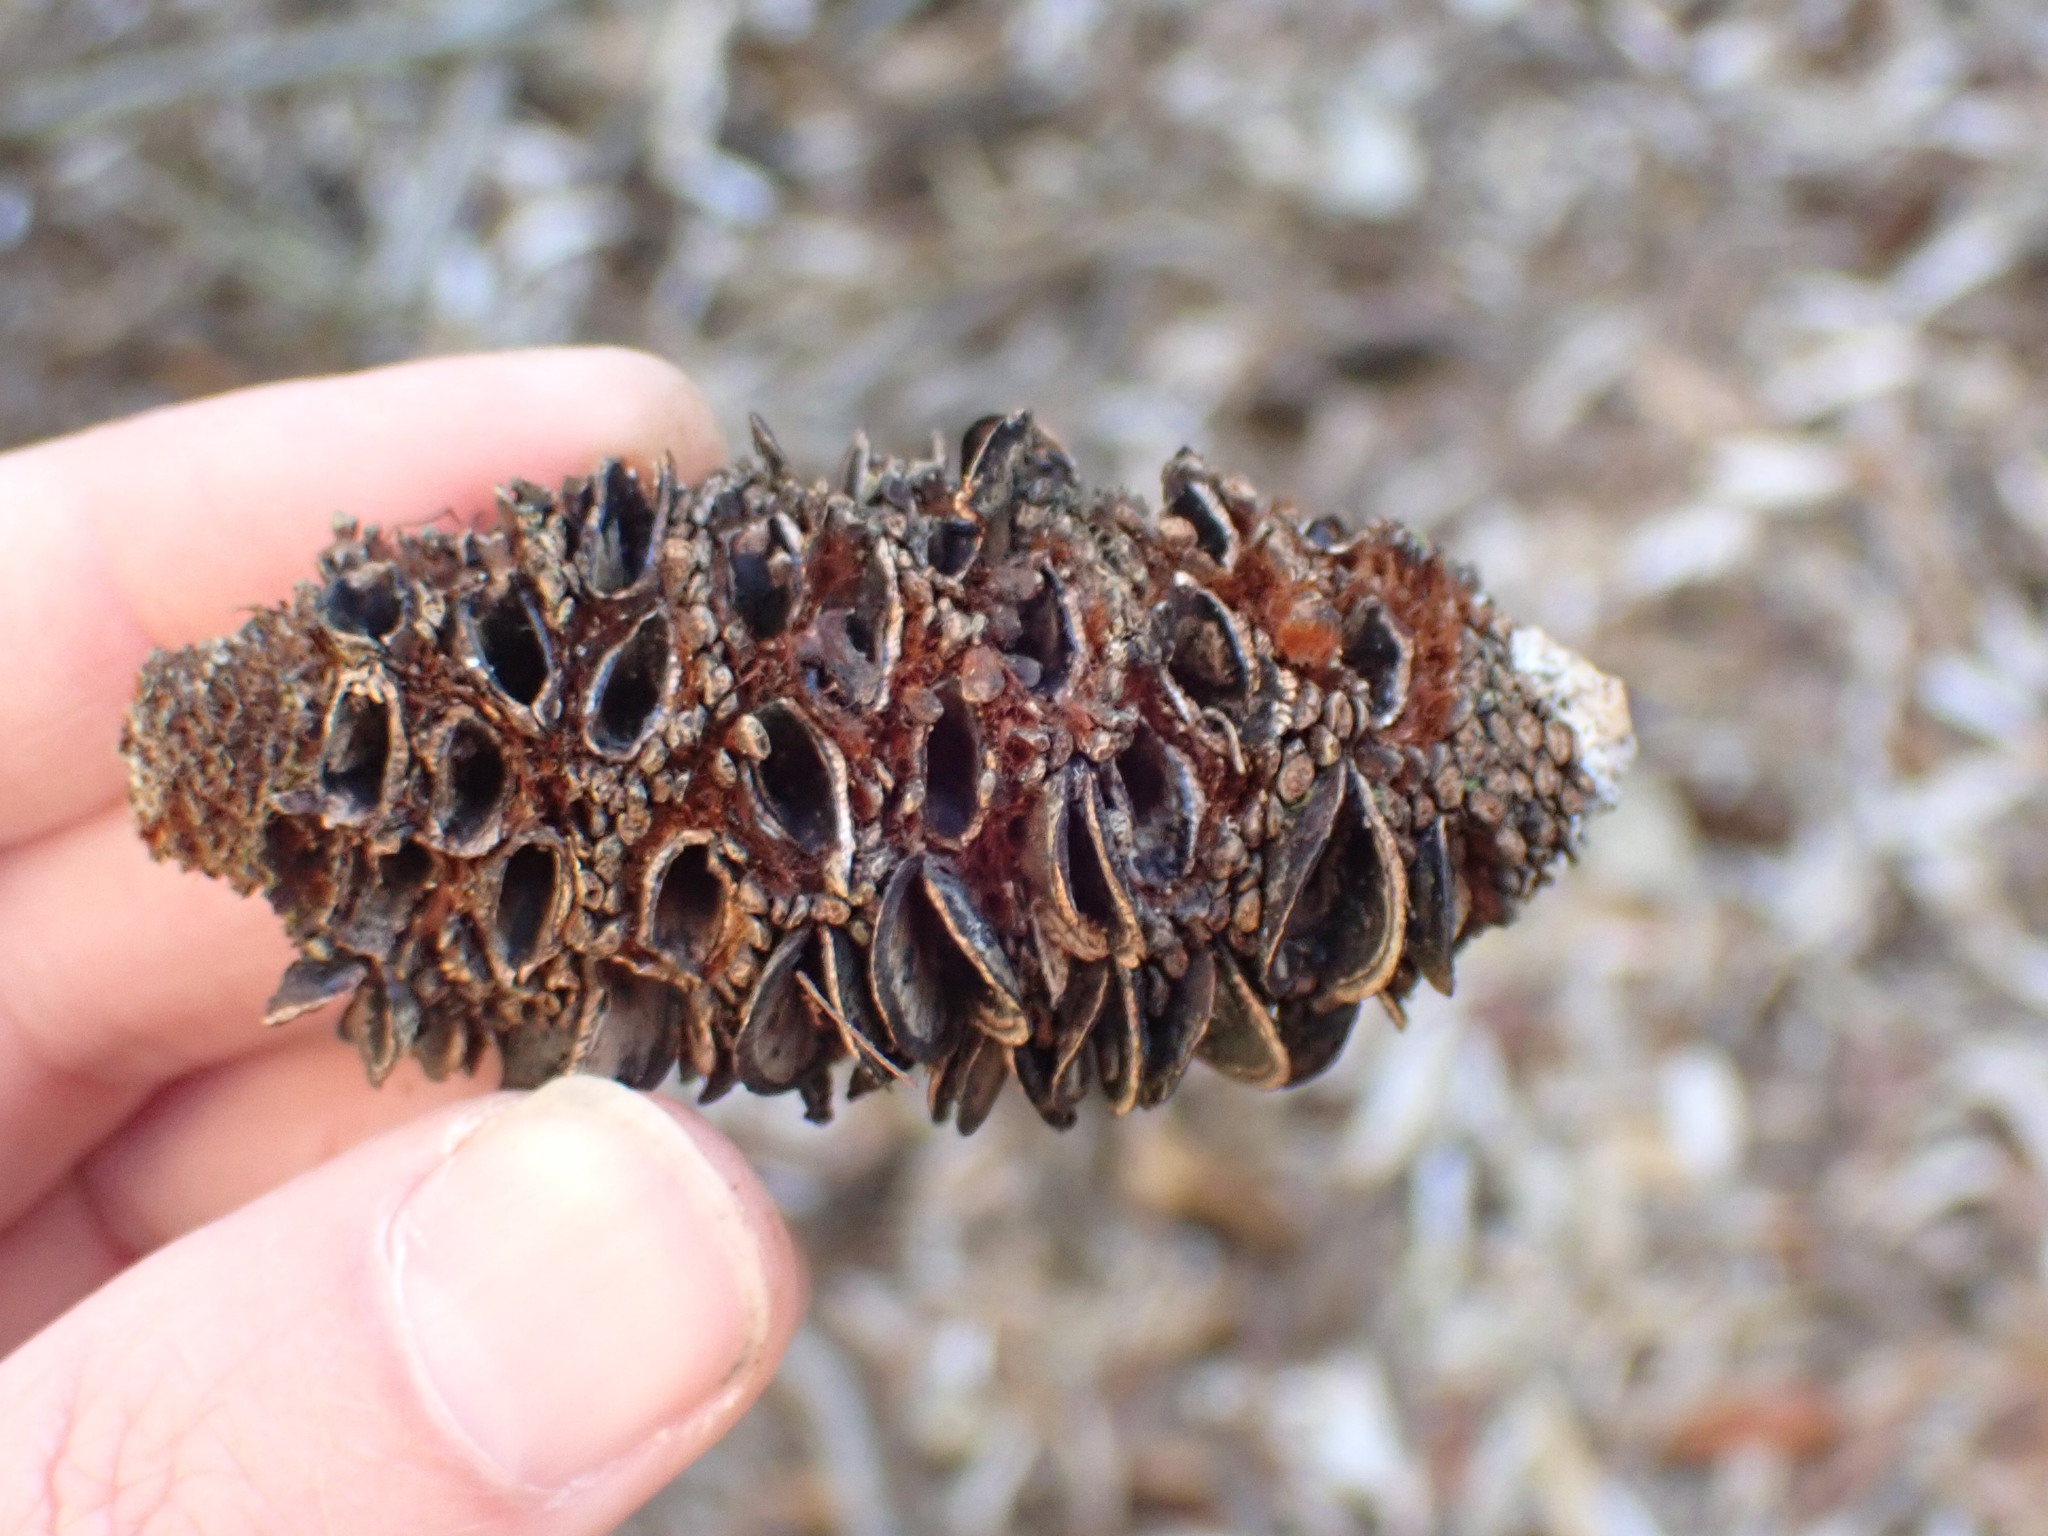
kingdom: Plantae
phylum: Tracheophyta
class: Magnoliopsida
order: Proteales
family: Proteaceae
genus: Banksia
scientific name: Banksia integrifolia
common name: White-honeysuckle
